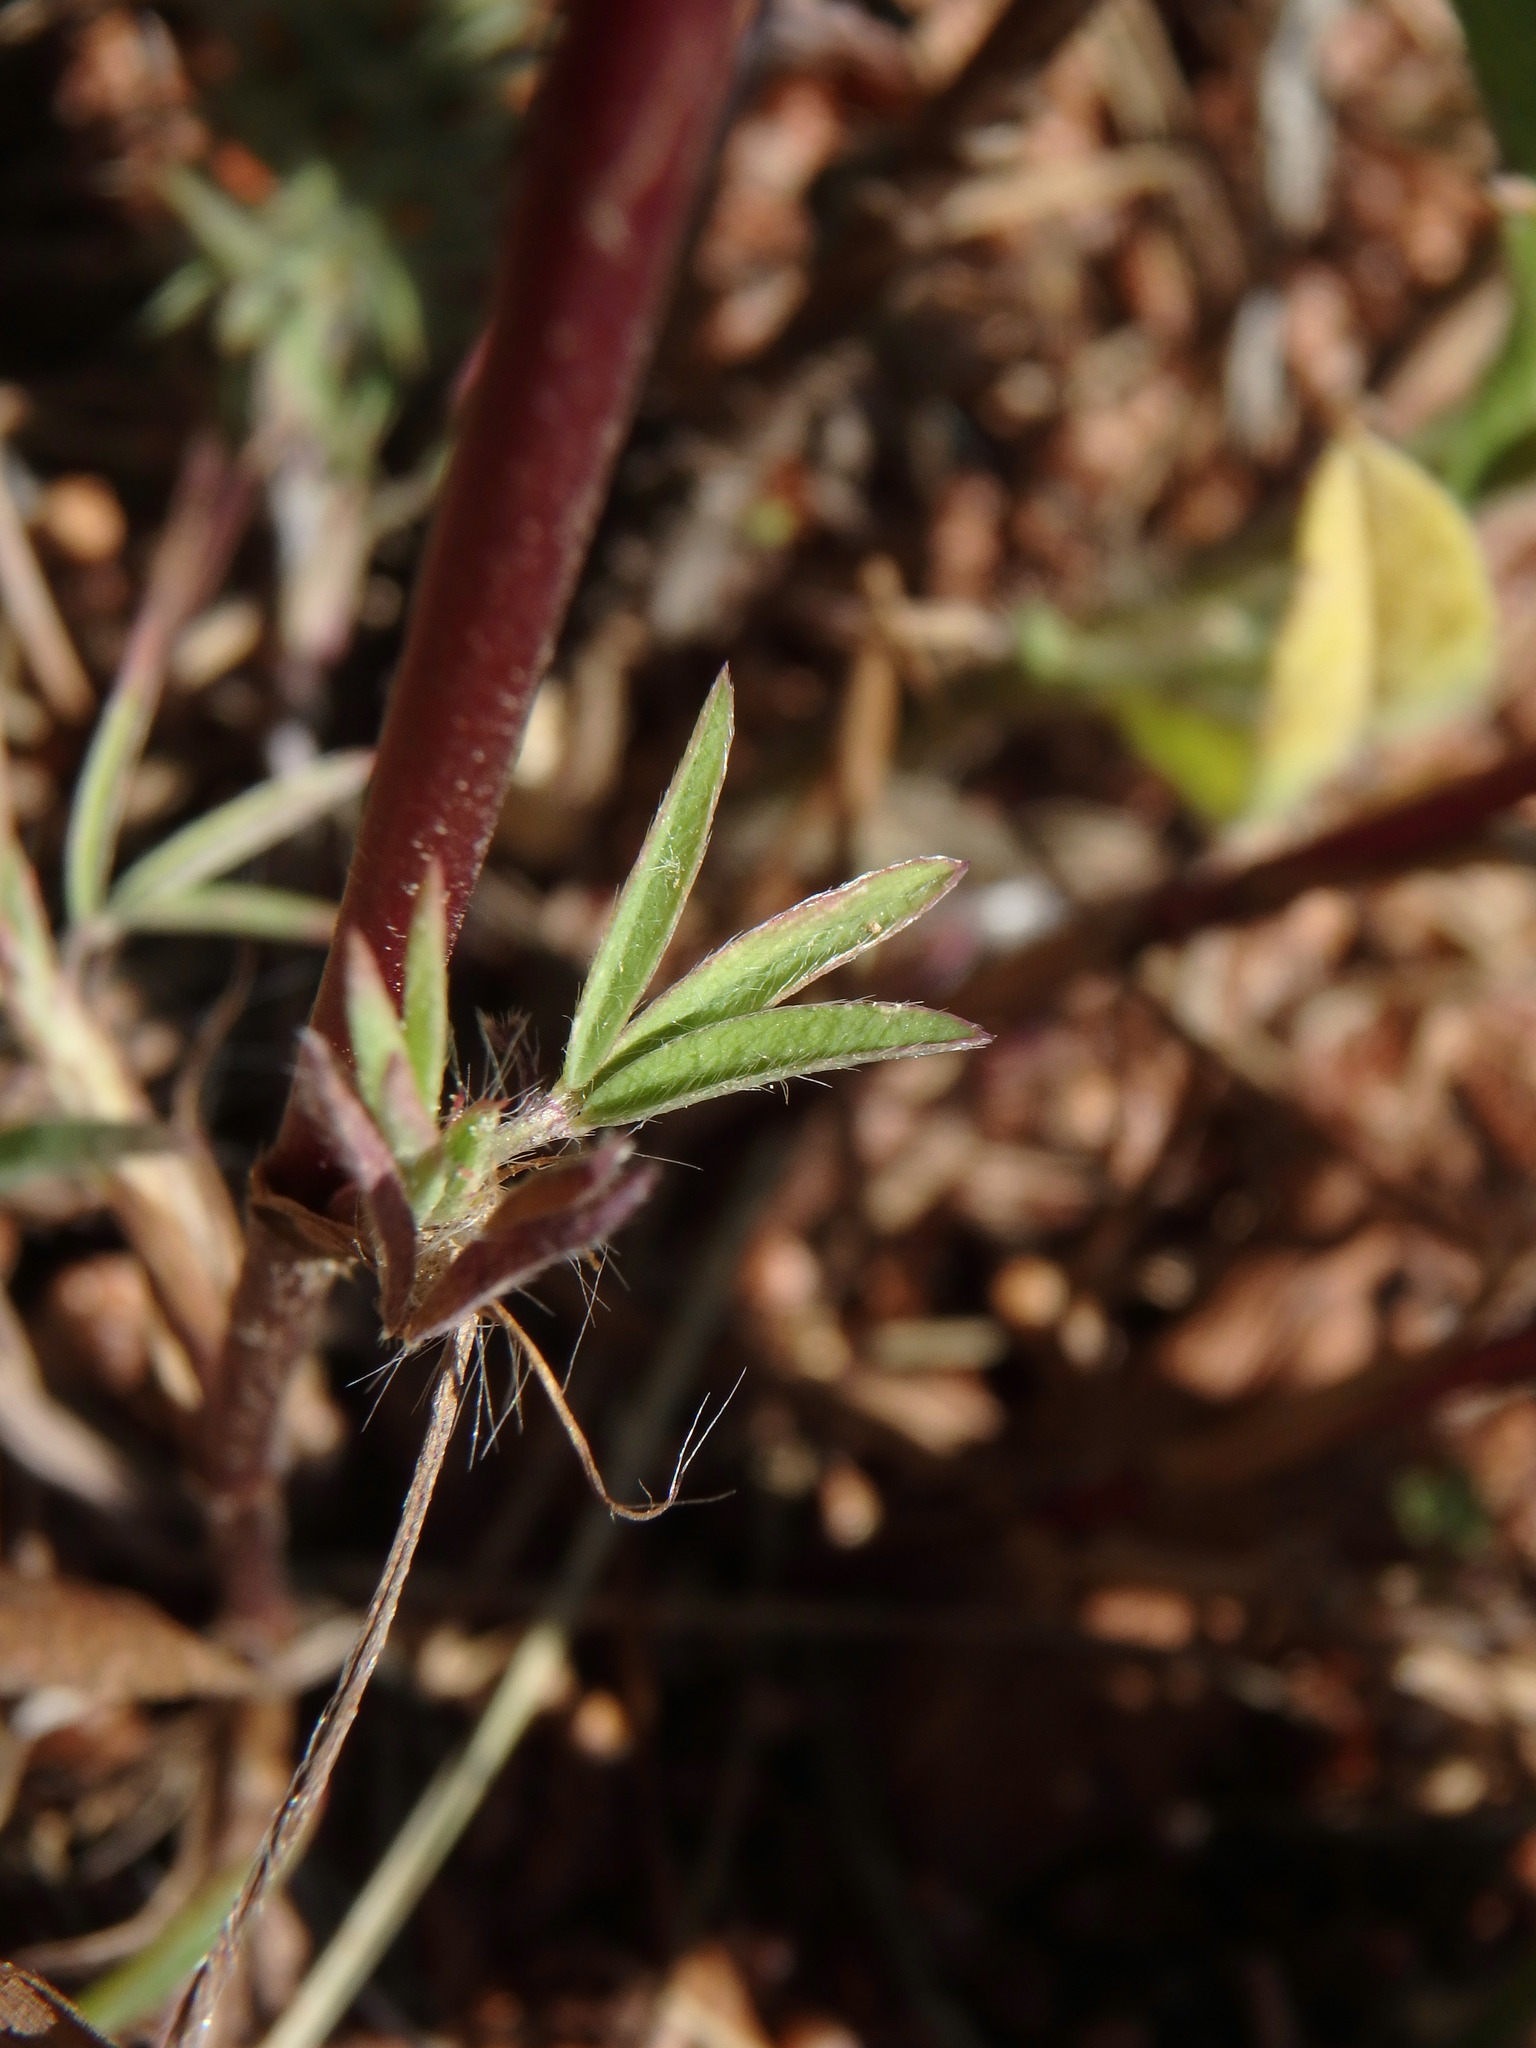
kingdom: Plantae
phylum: Tracheophyta
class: Magnoliopsida
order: Fabales
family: Fabaceae
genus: Trifolium
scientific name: Trifolium angustifolium
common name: Narrow clover
